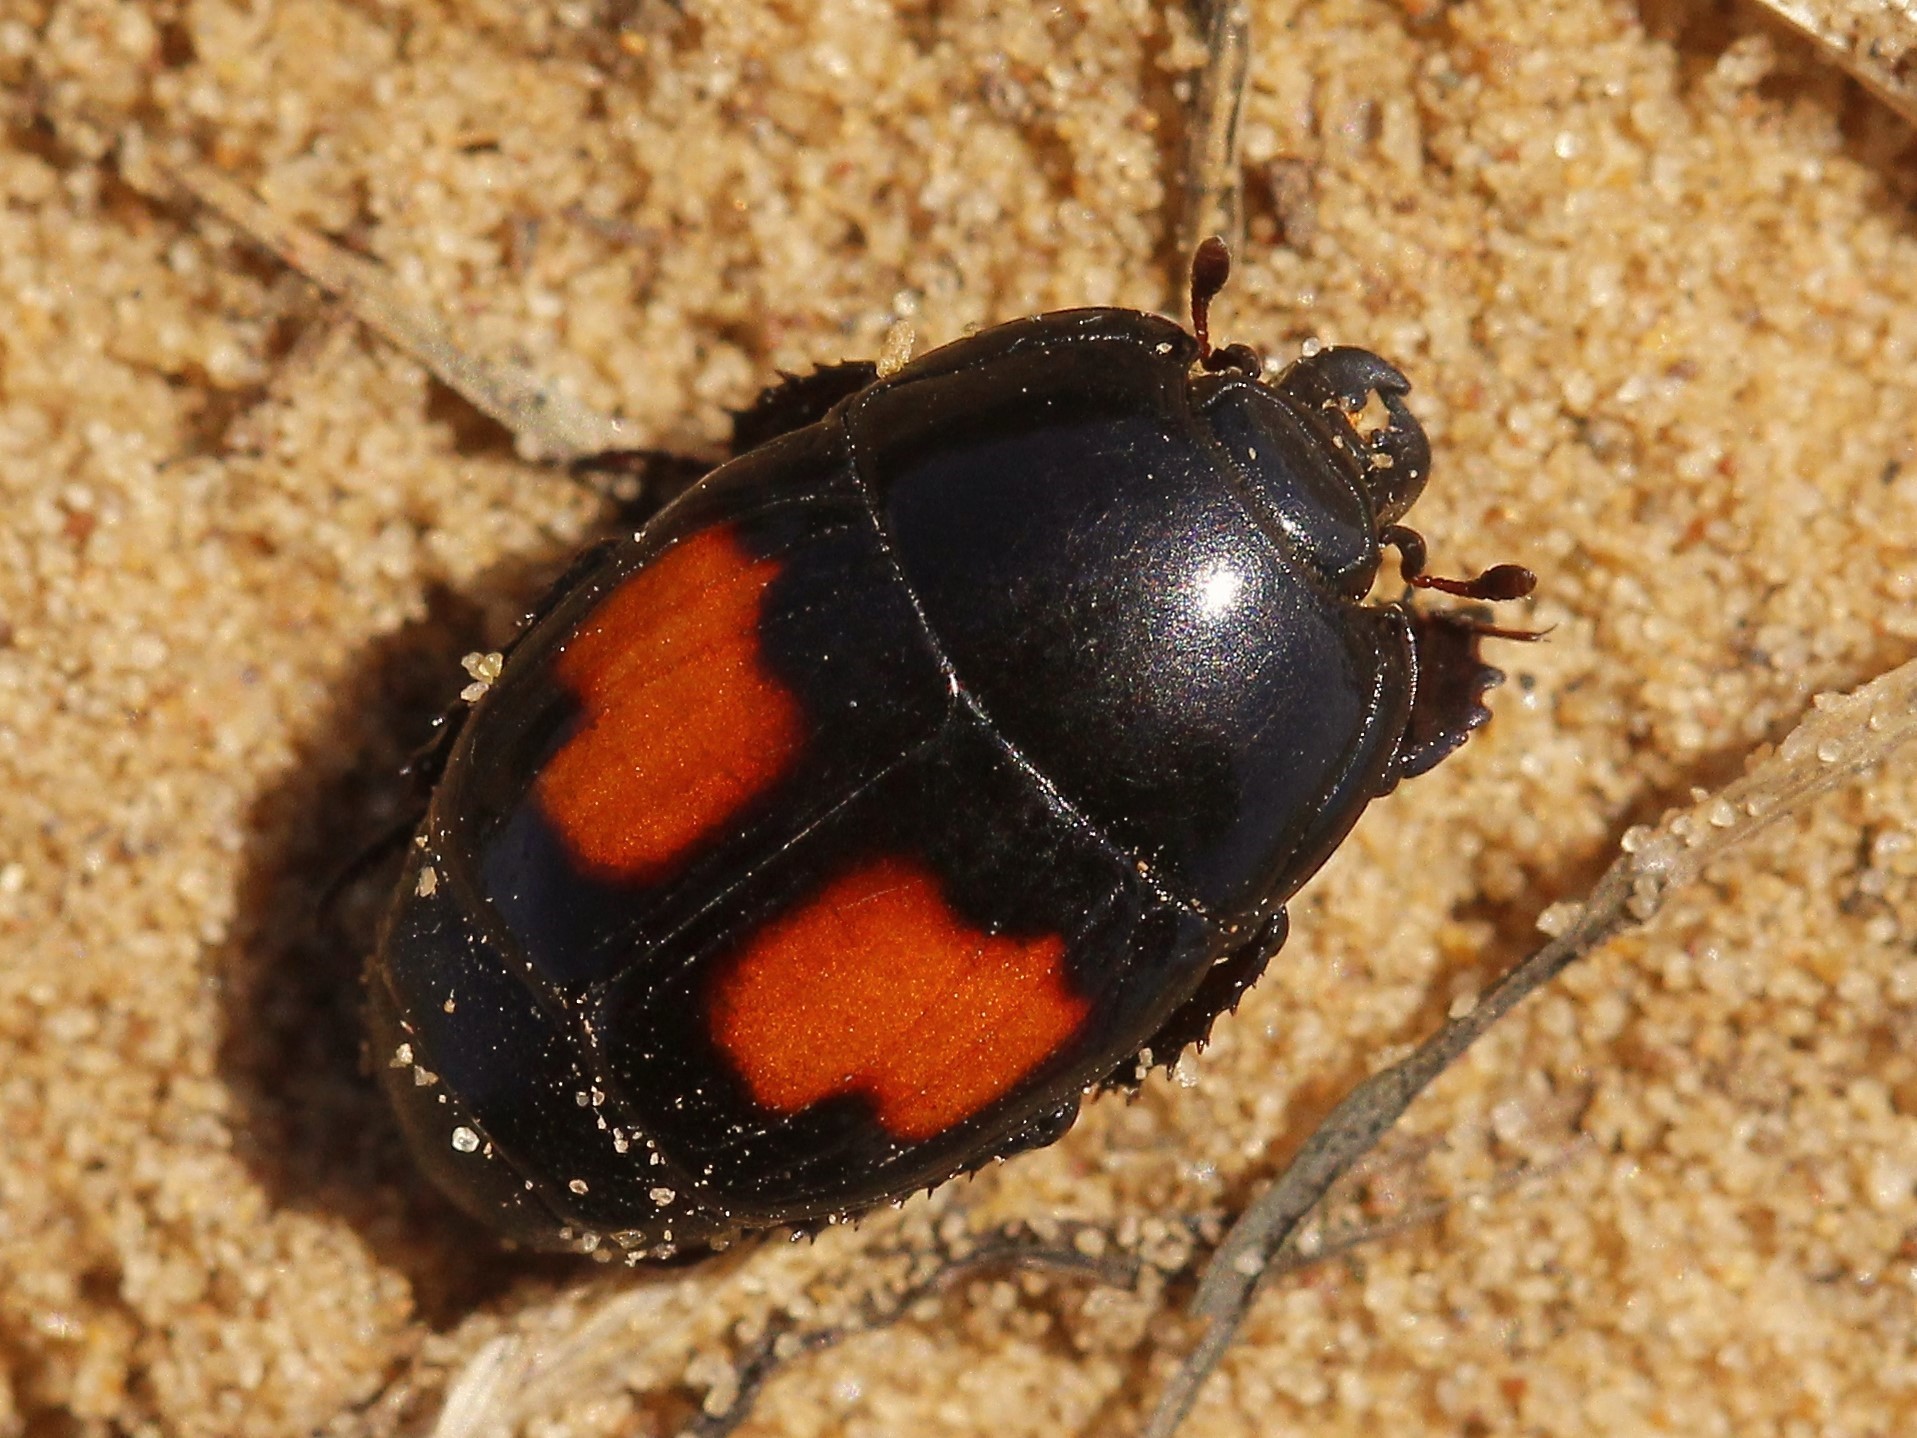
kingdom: Animalia
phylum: Arthropoda
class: Insecta
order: Coleoptera
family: Histeridae
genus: Margarinotus
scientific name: Margarinotus bipustulatus
